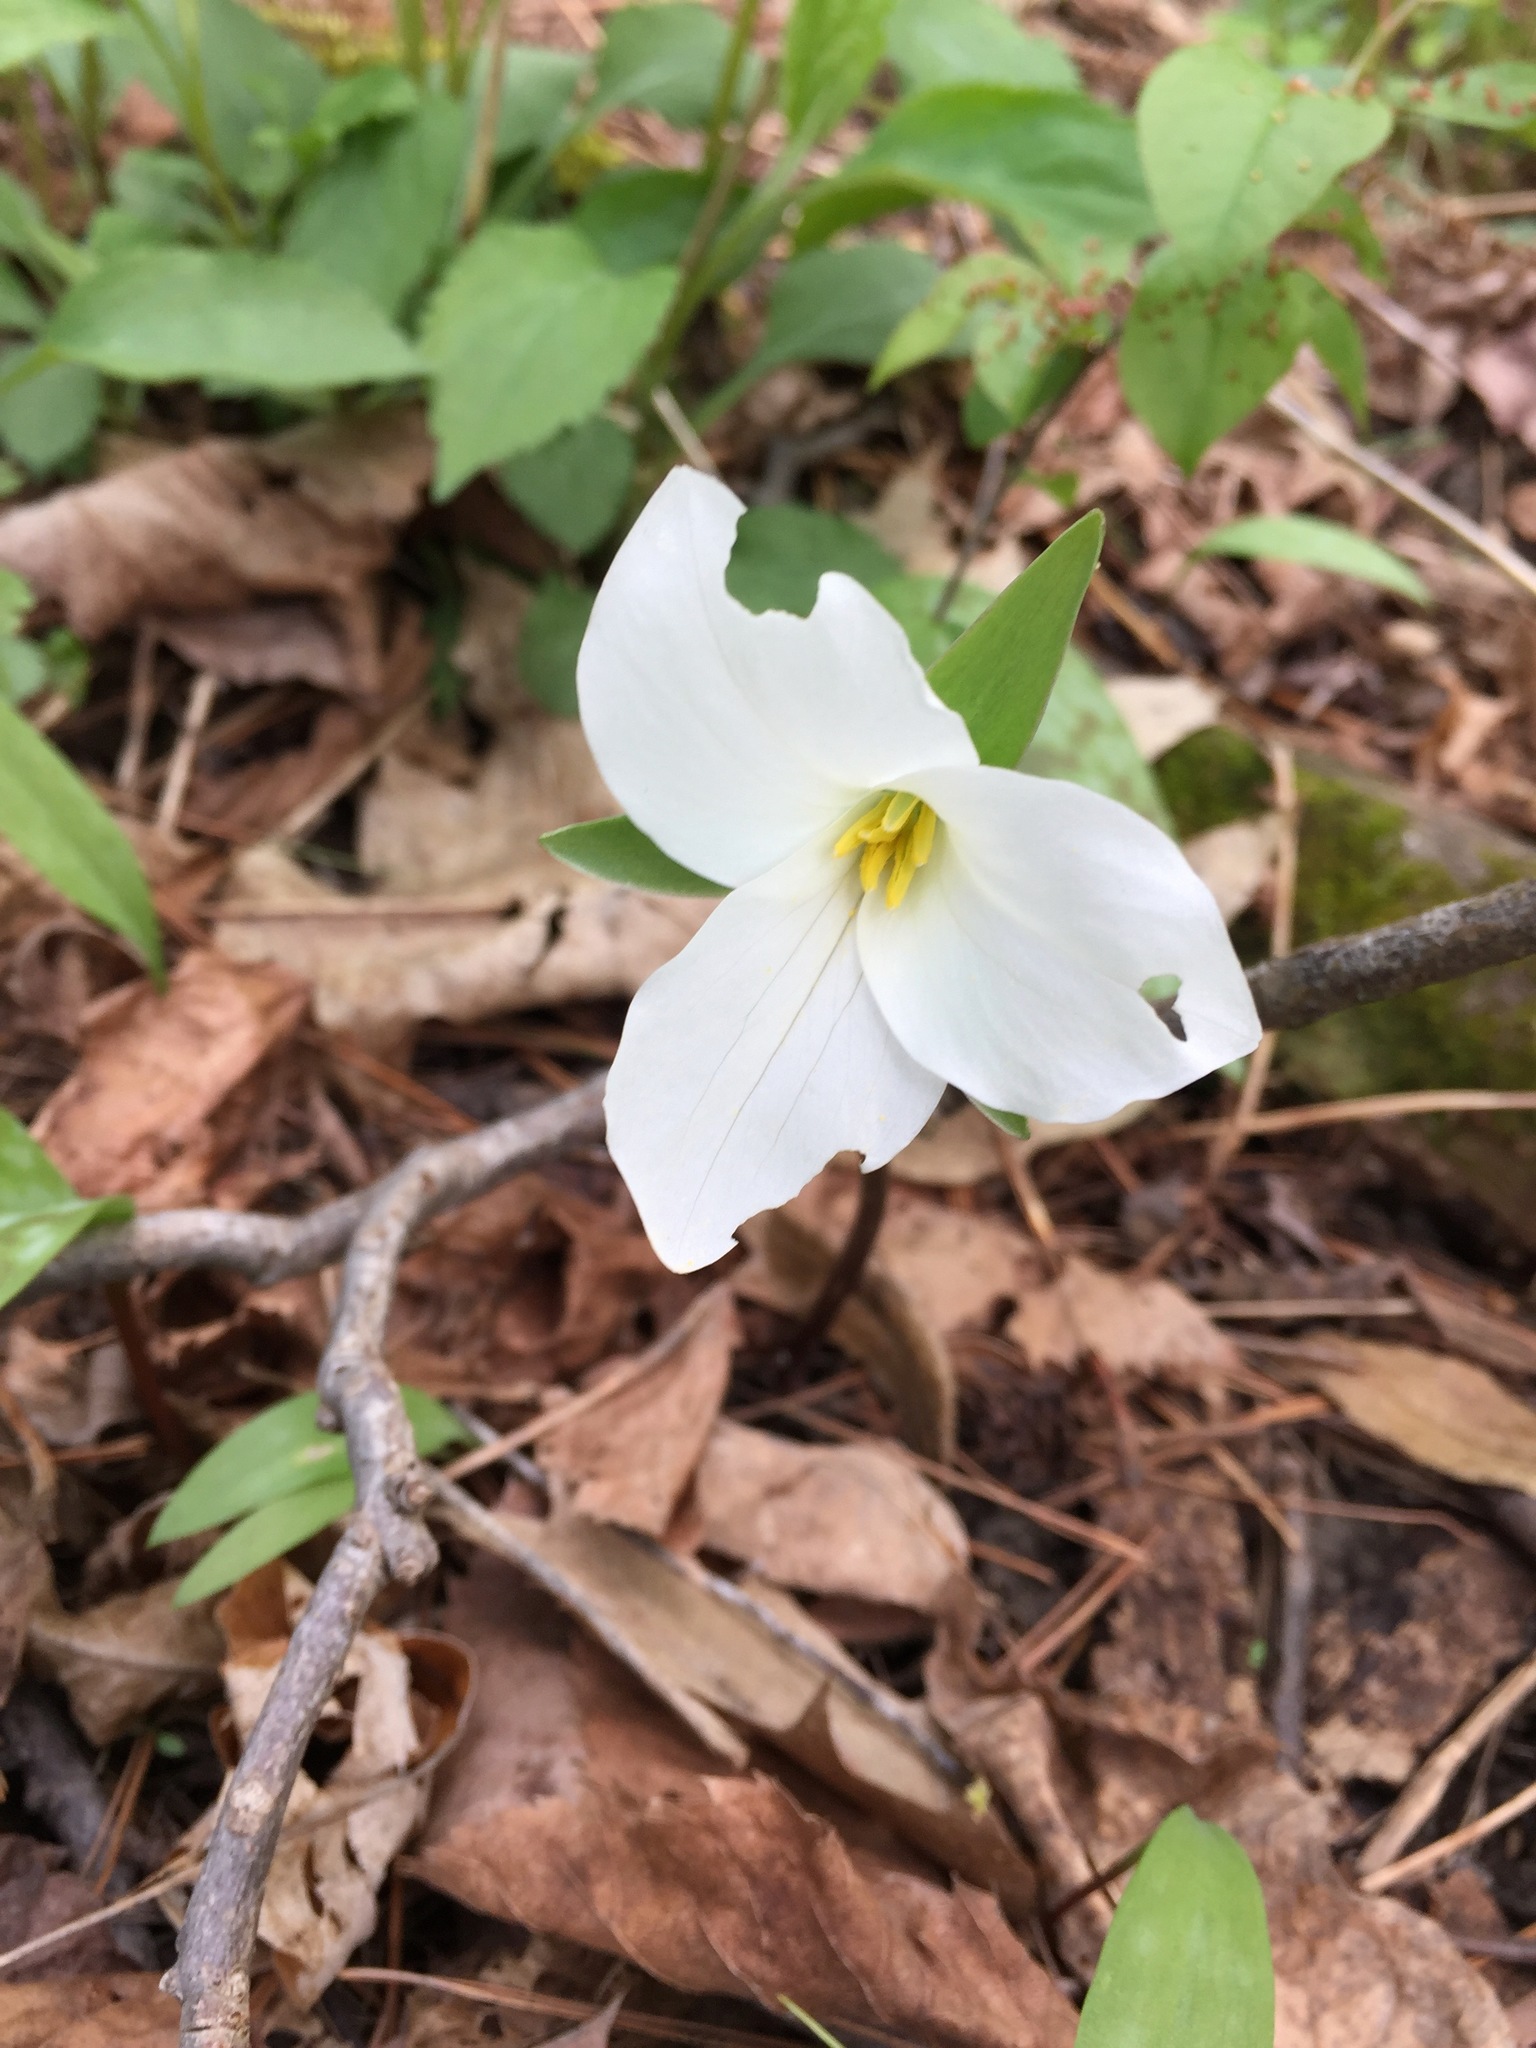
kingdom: Plantae
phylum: Tracheophyta
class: Liliopsida
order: Liliales
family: Melanthiaceae
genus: Trillium
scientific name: Trillium grandiflorum
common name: Great white trillium
